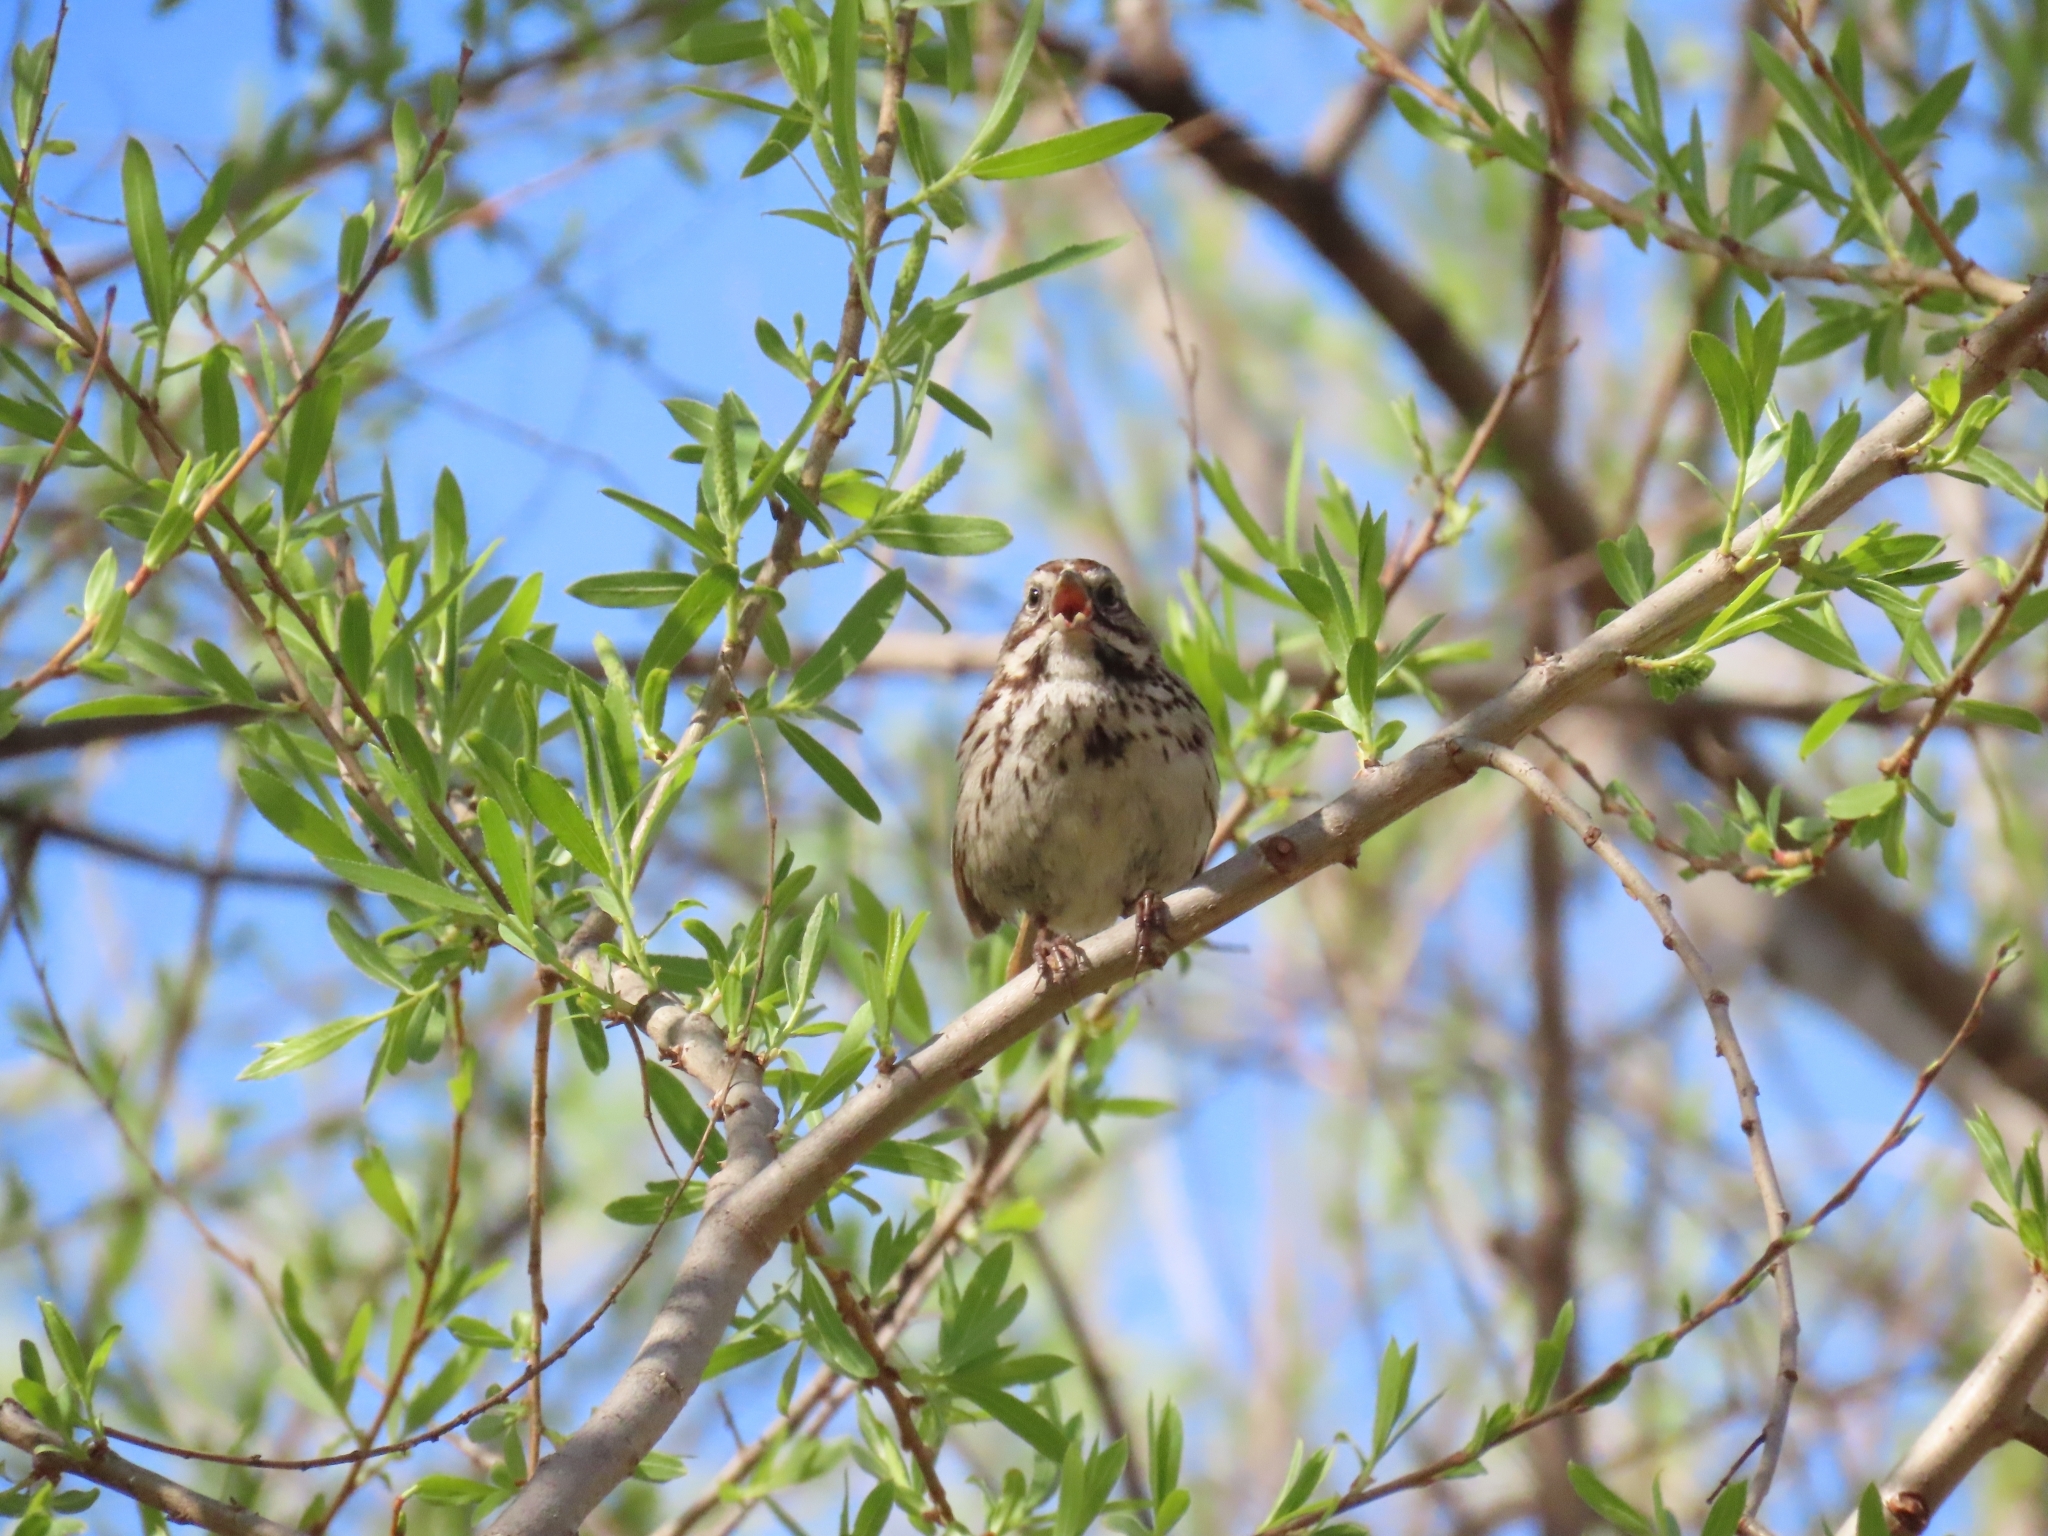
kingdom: Animalia
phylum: Chordata
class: Aves
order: Passeriformes
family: Passerellidae
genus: Melospiza
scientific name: Melospiza melodia
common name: Song sparrow
